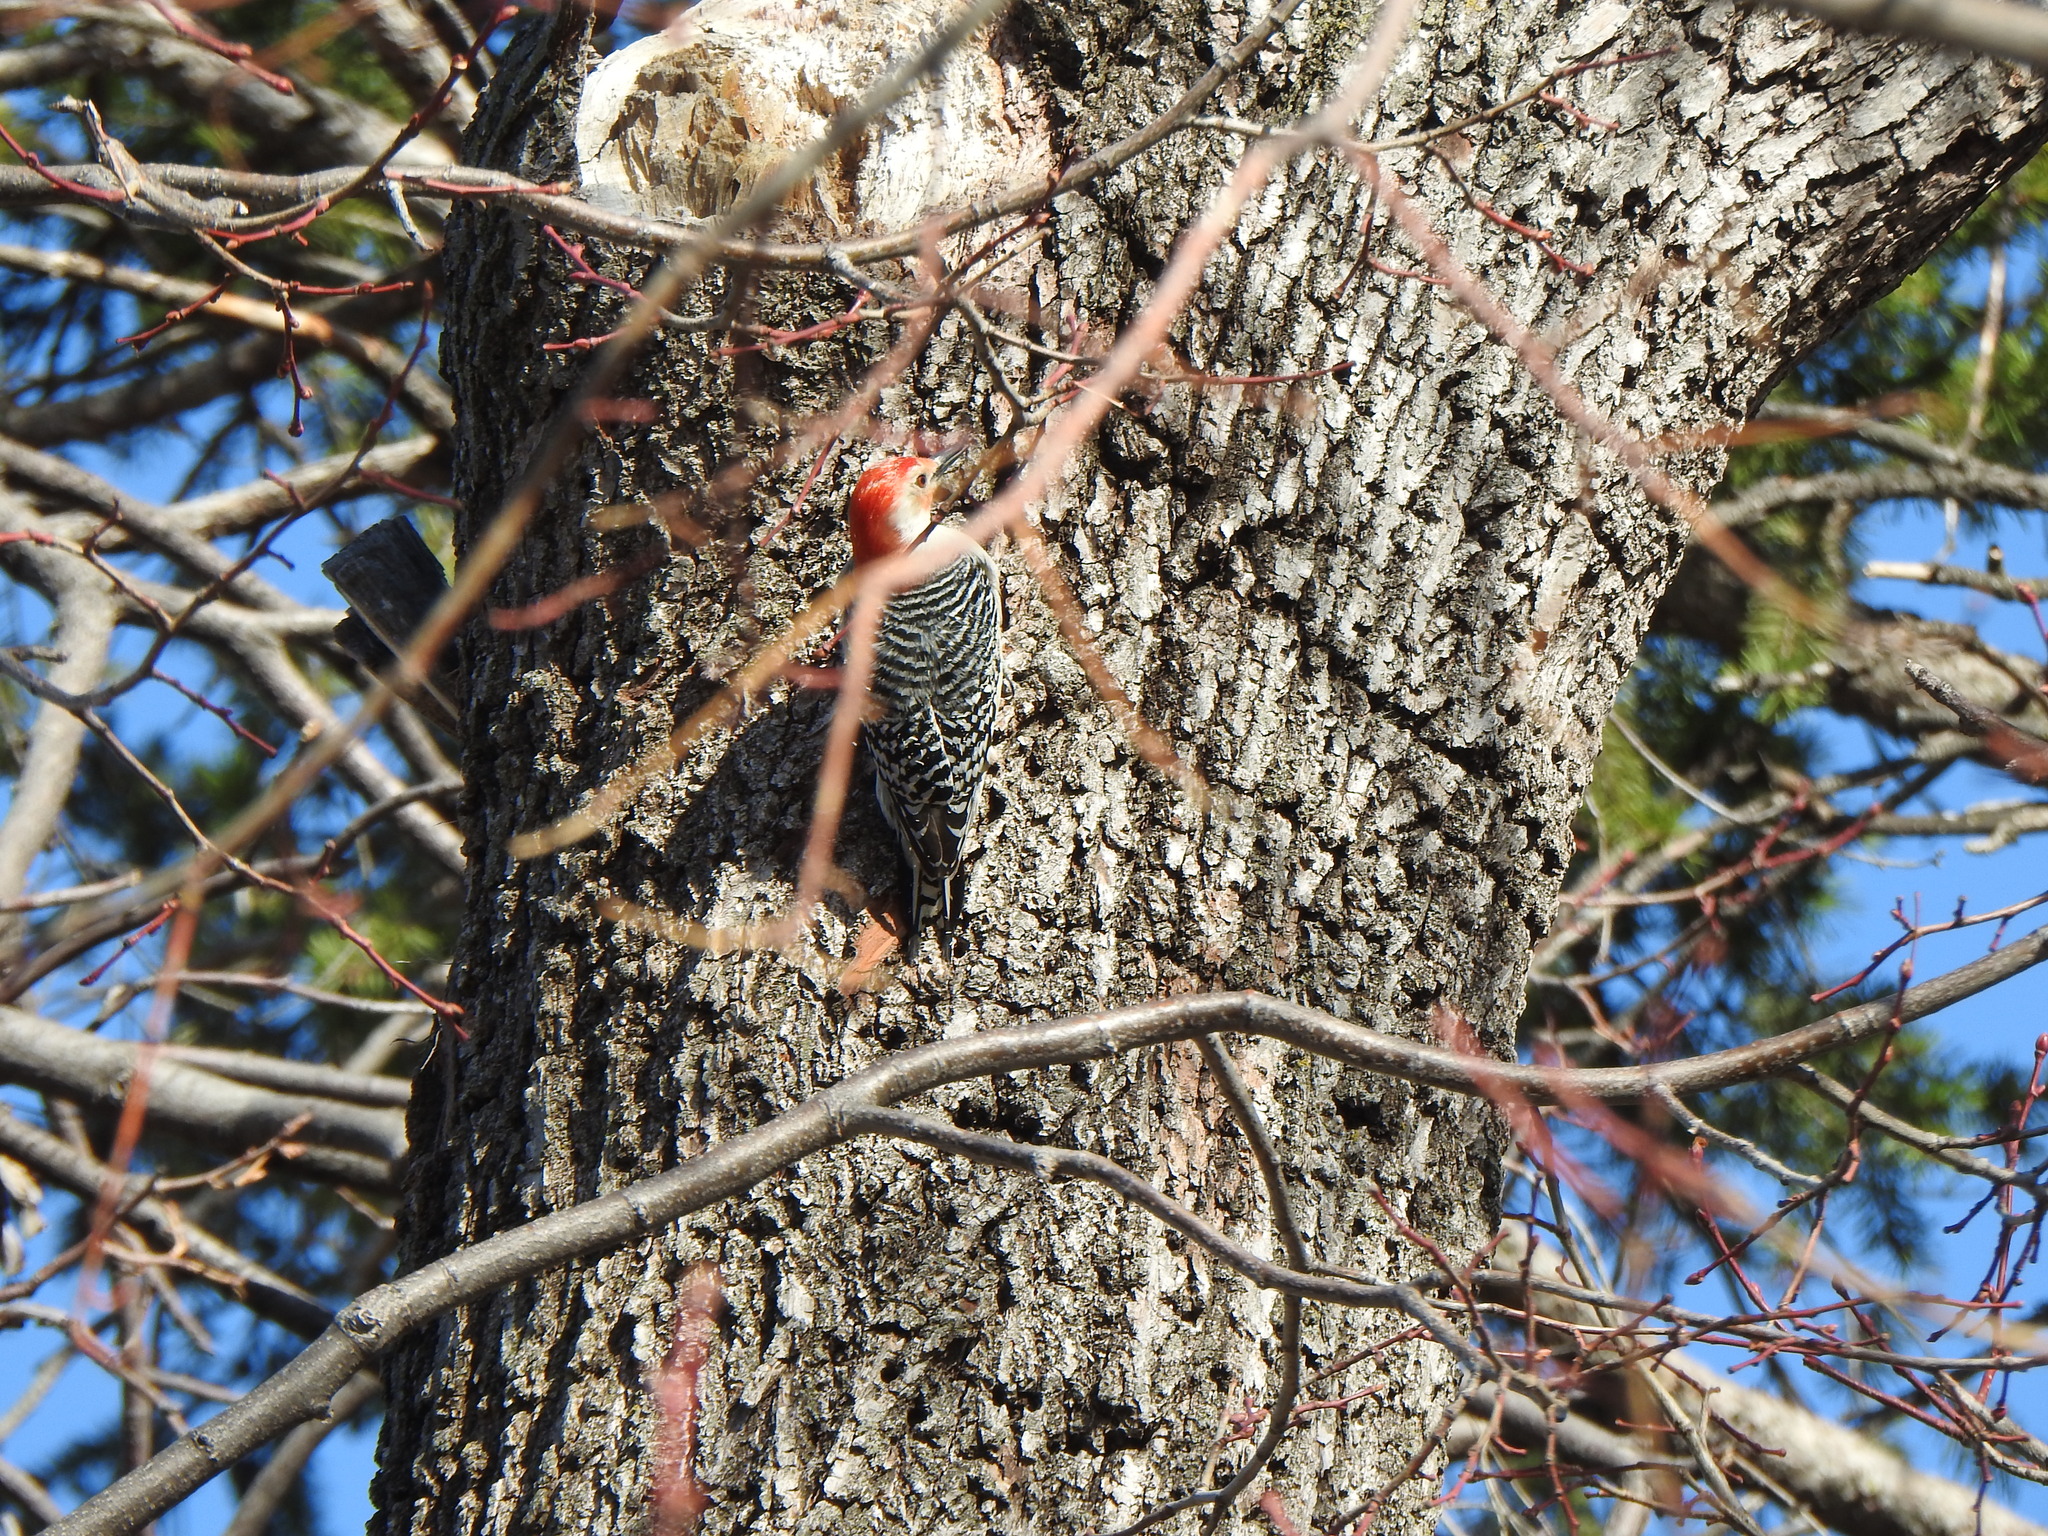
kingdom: Animalia
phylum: Chordata
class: Aves
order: Piciformes
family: Picidae
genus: Melanerpes
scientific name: Melanerpes carolinus
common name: Red-bellied woodpecker
